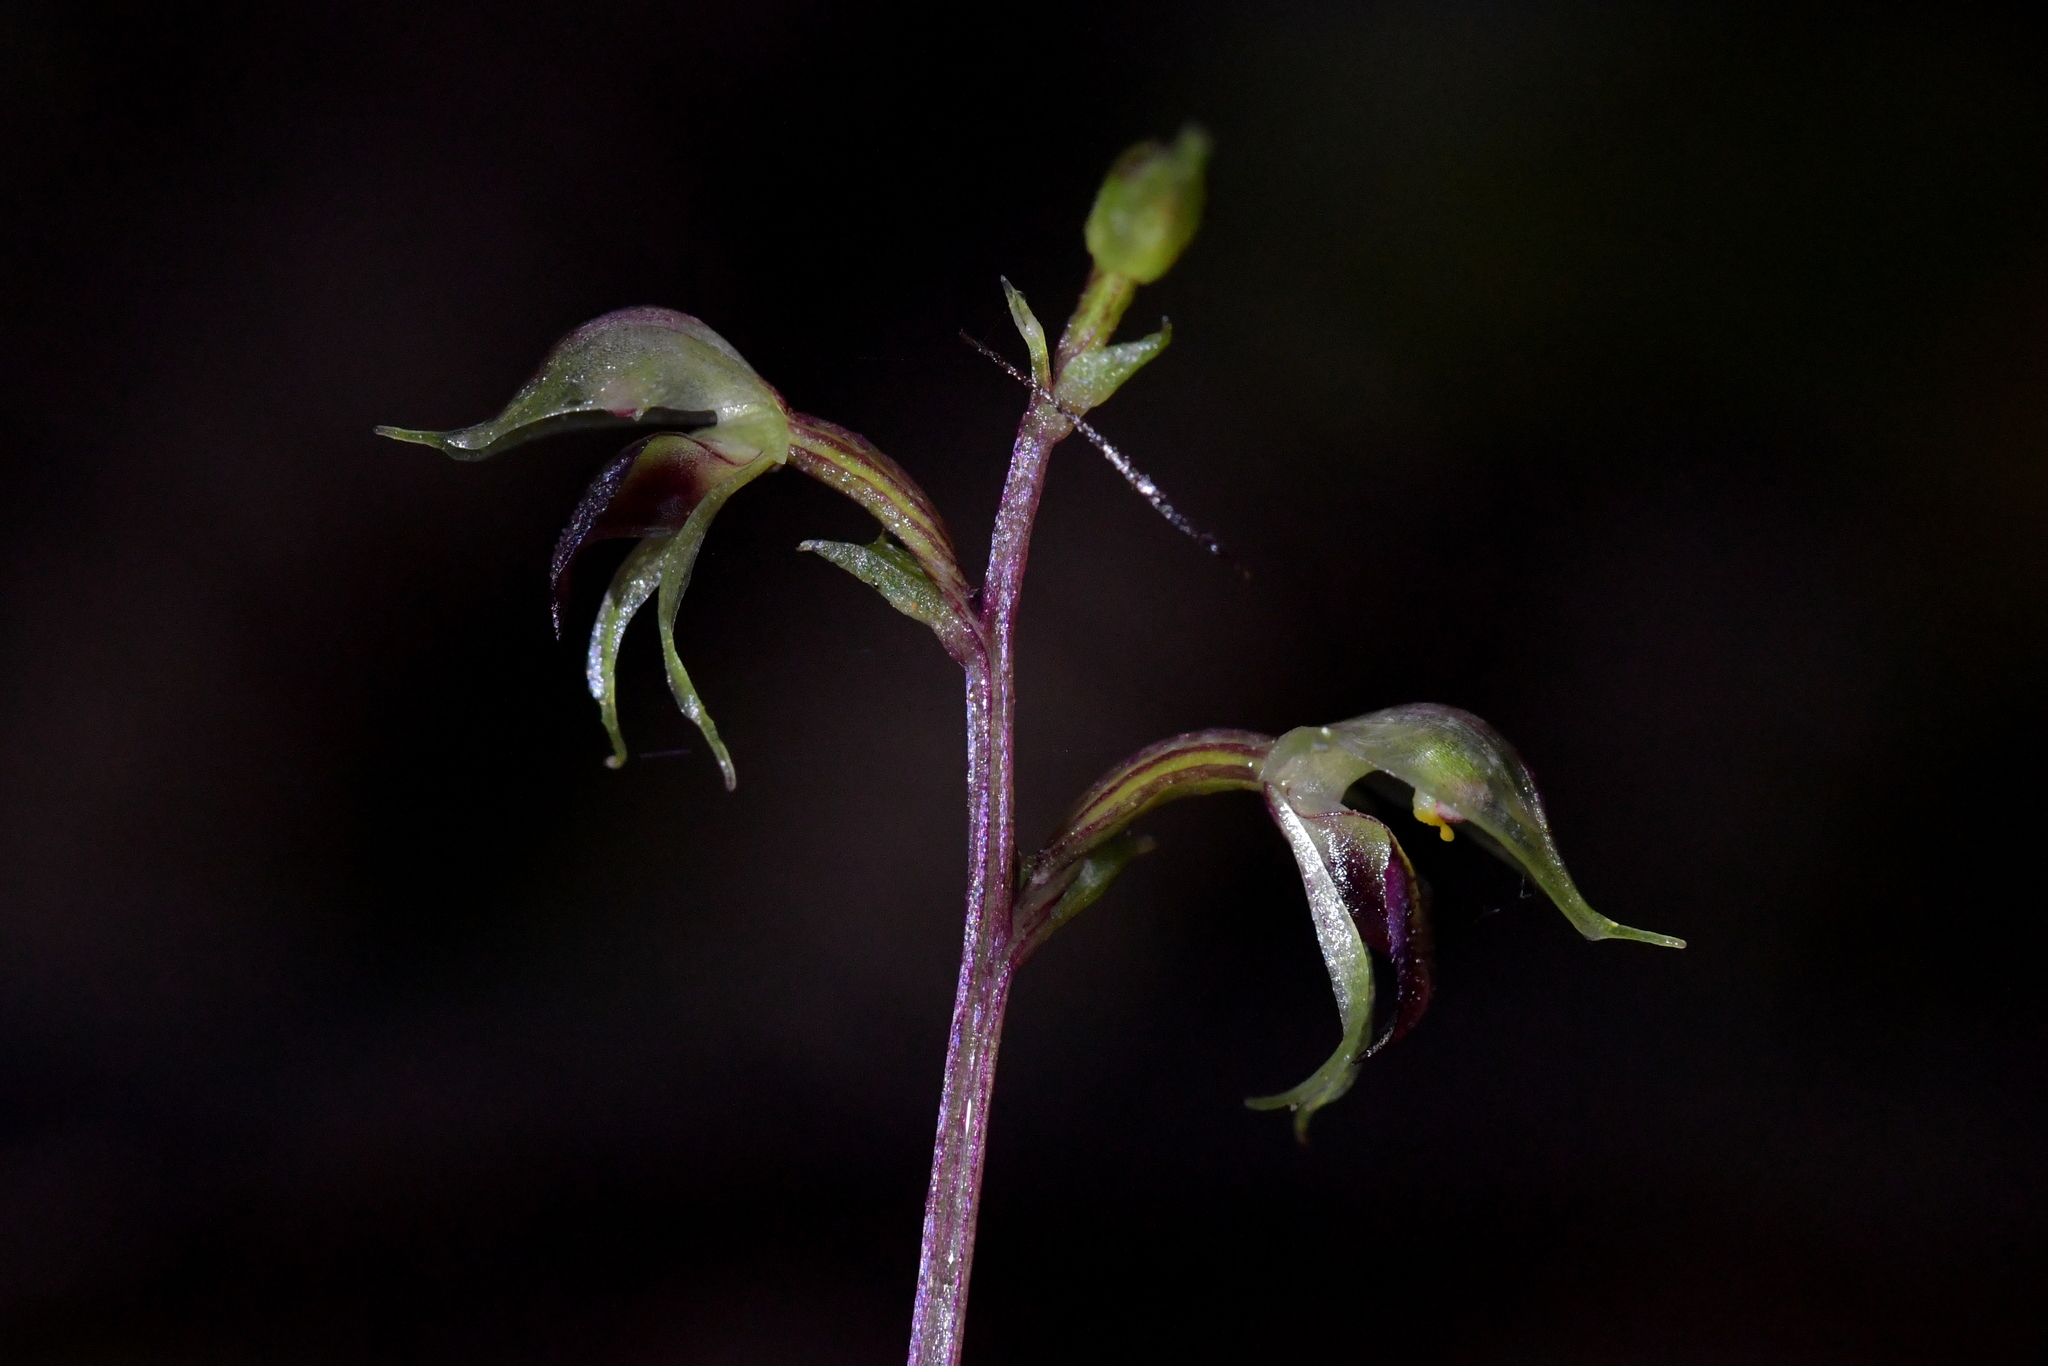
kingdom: Plantae
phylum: Tracheophyta
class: Liliopsida
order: Asparagales
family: Orchidaceae
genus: Acianthus
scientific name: Acianthus sinclairii
